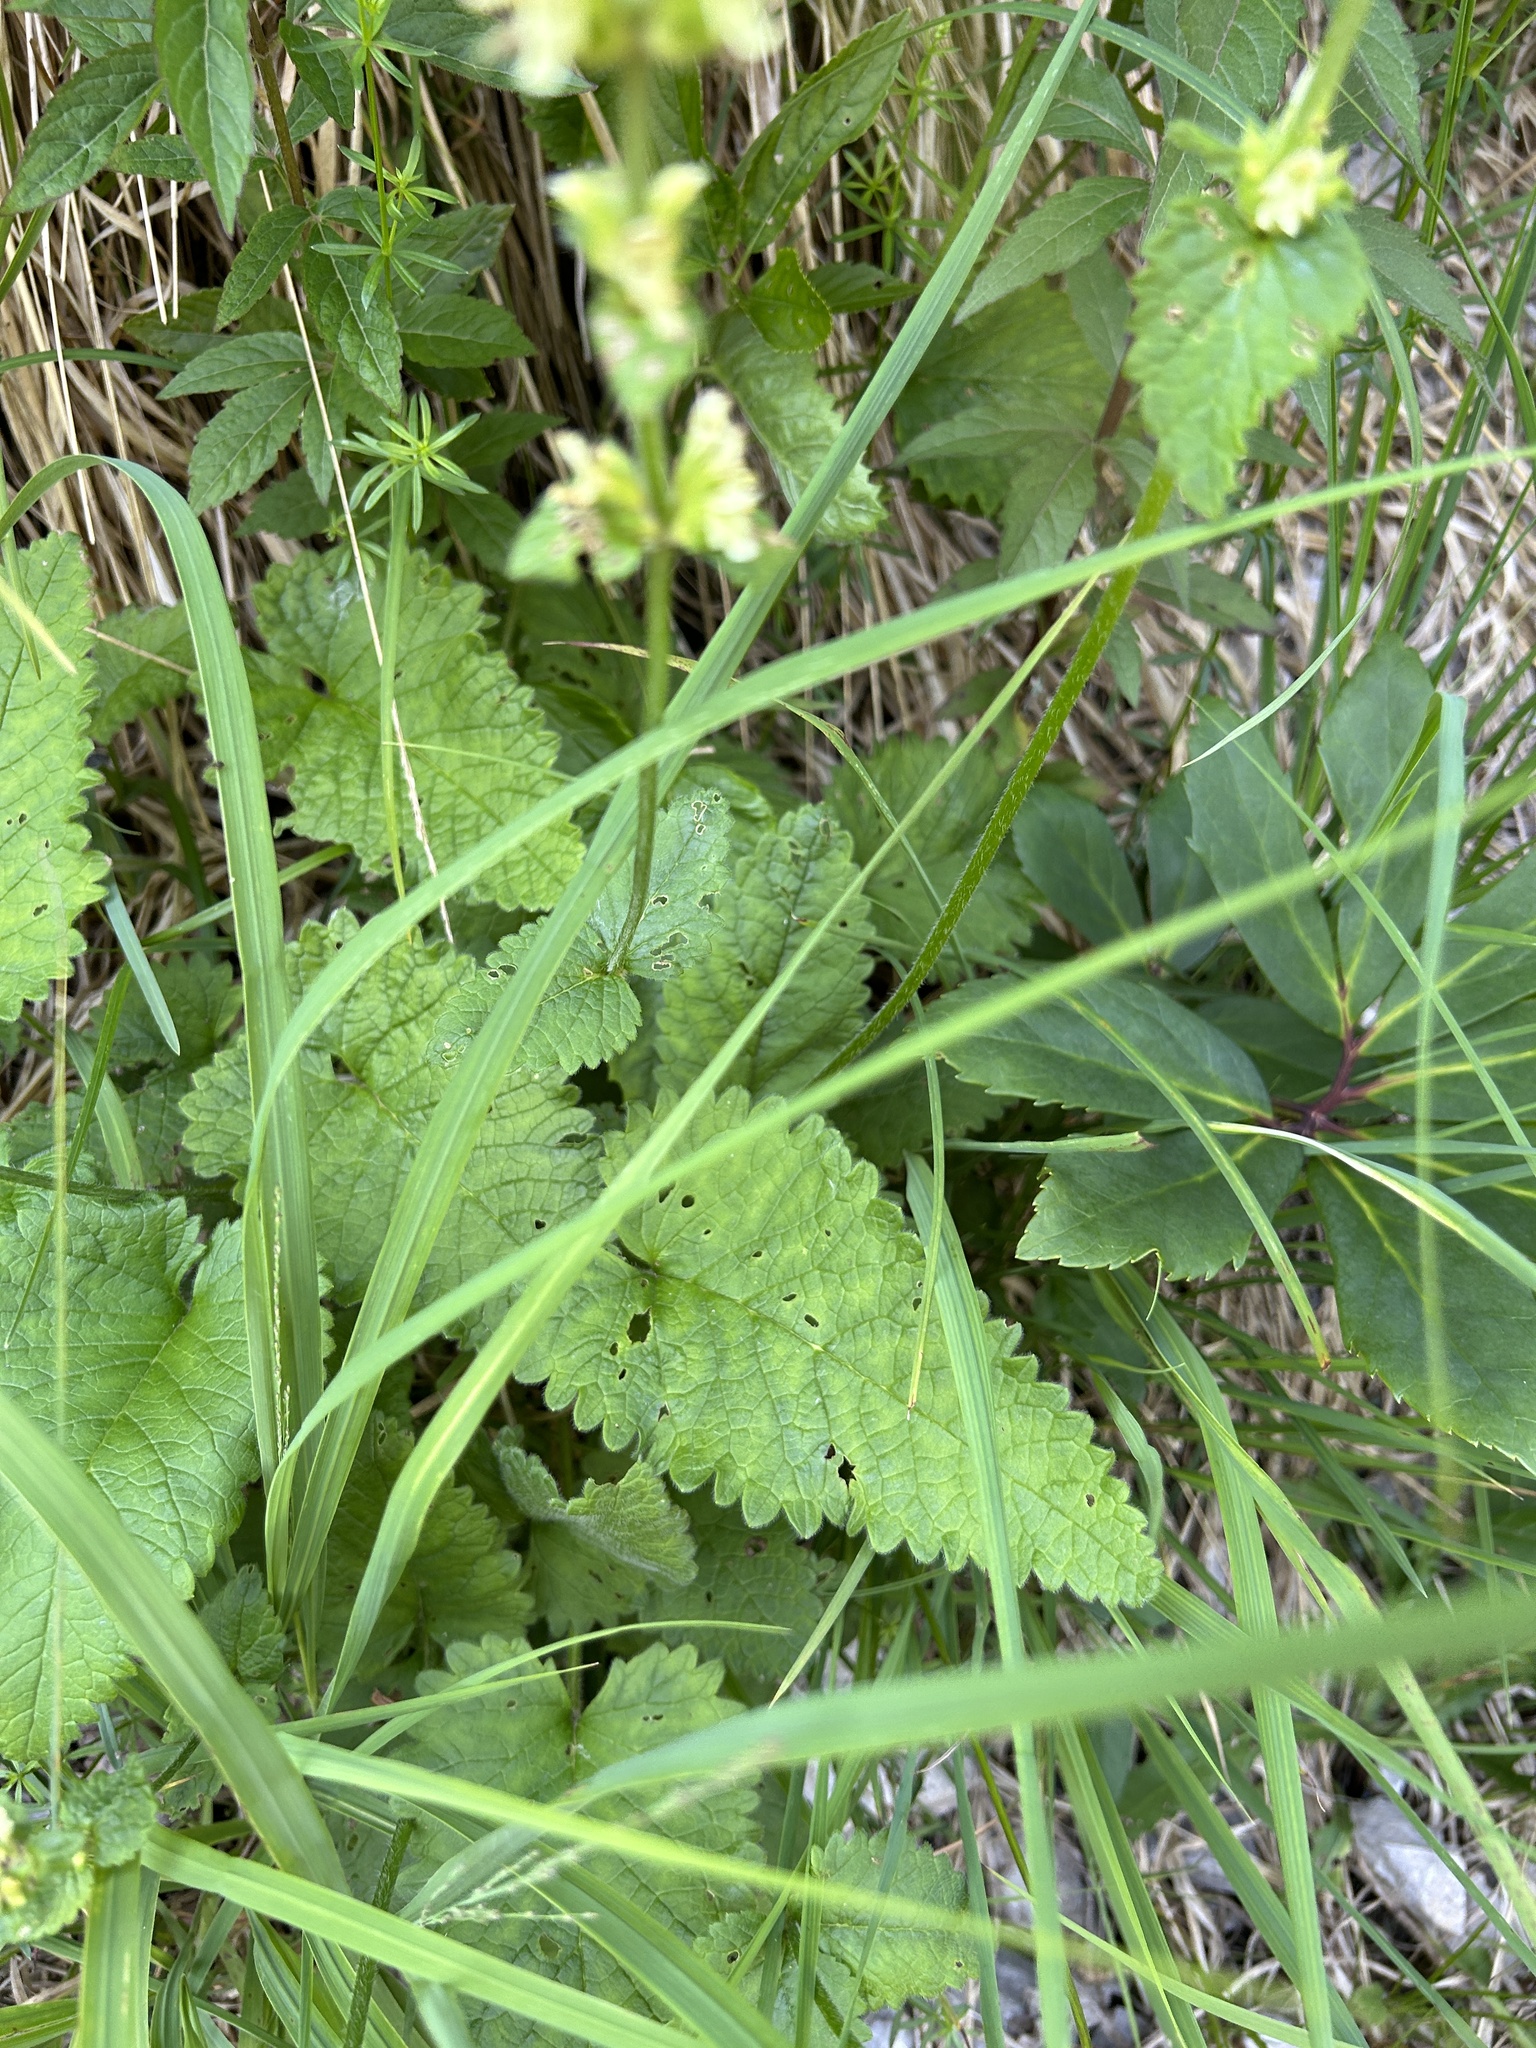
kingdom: Plantae
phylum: Tracheophyta
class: Magnoliopsida
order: Lamiales
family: Lamiaceae
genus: Betonica
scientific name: Betonica alopecuros
